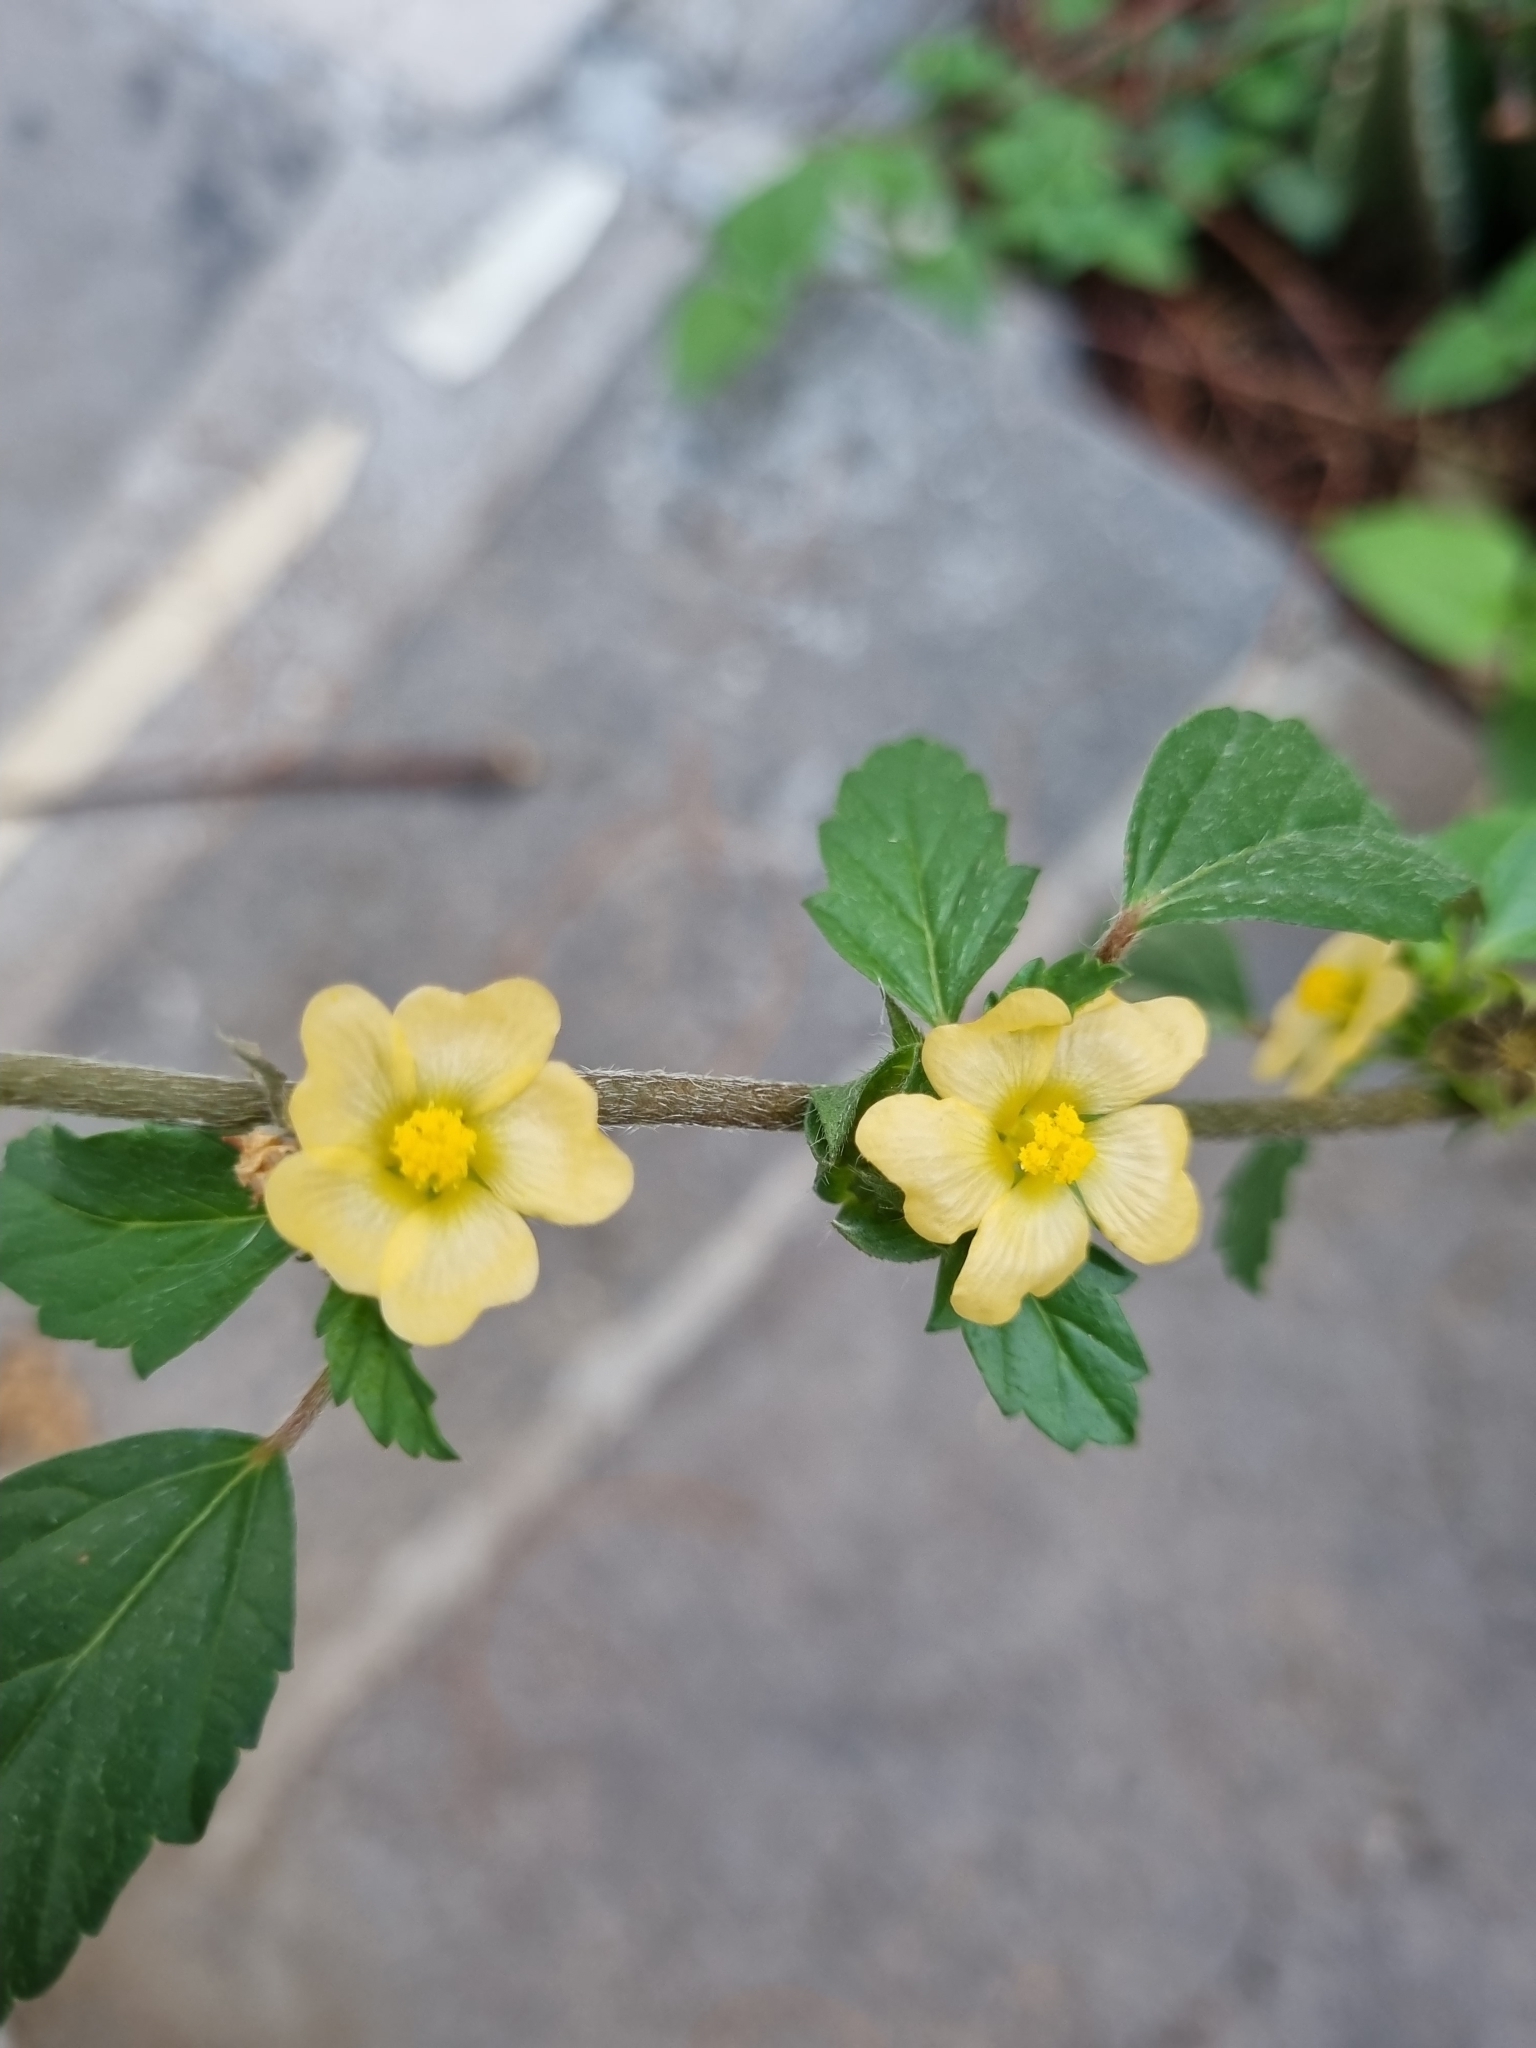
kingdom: Plantae
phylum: Tracheophyta
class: Magnoliopsida
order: Malvales
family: Malvaceae
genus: Malvastrum
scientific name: Malvastrum coromandelianum
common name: Threelobe false mallow
